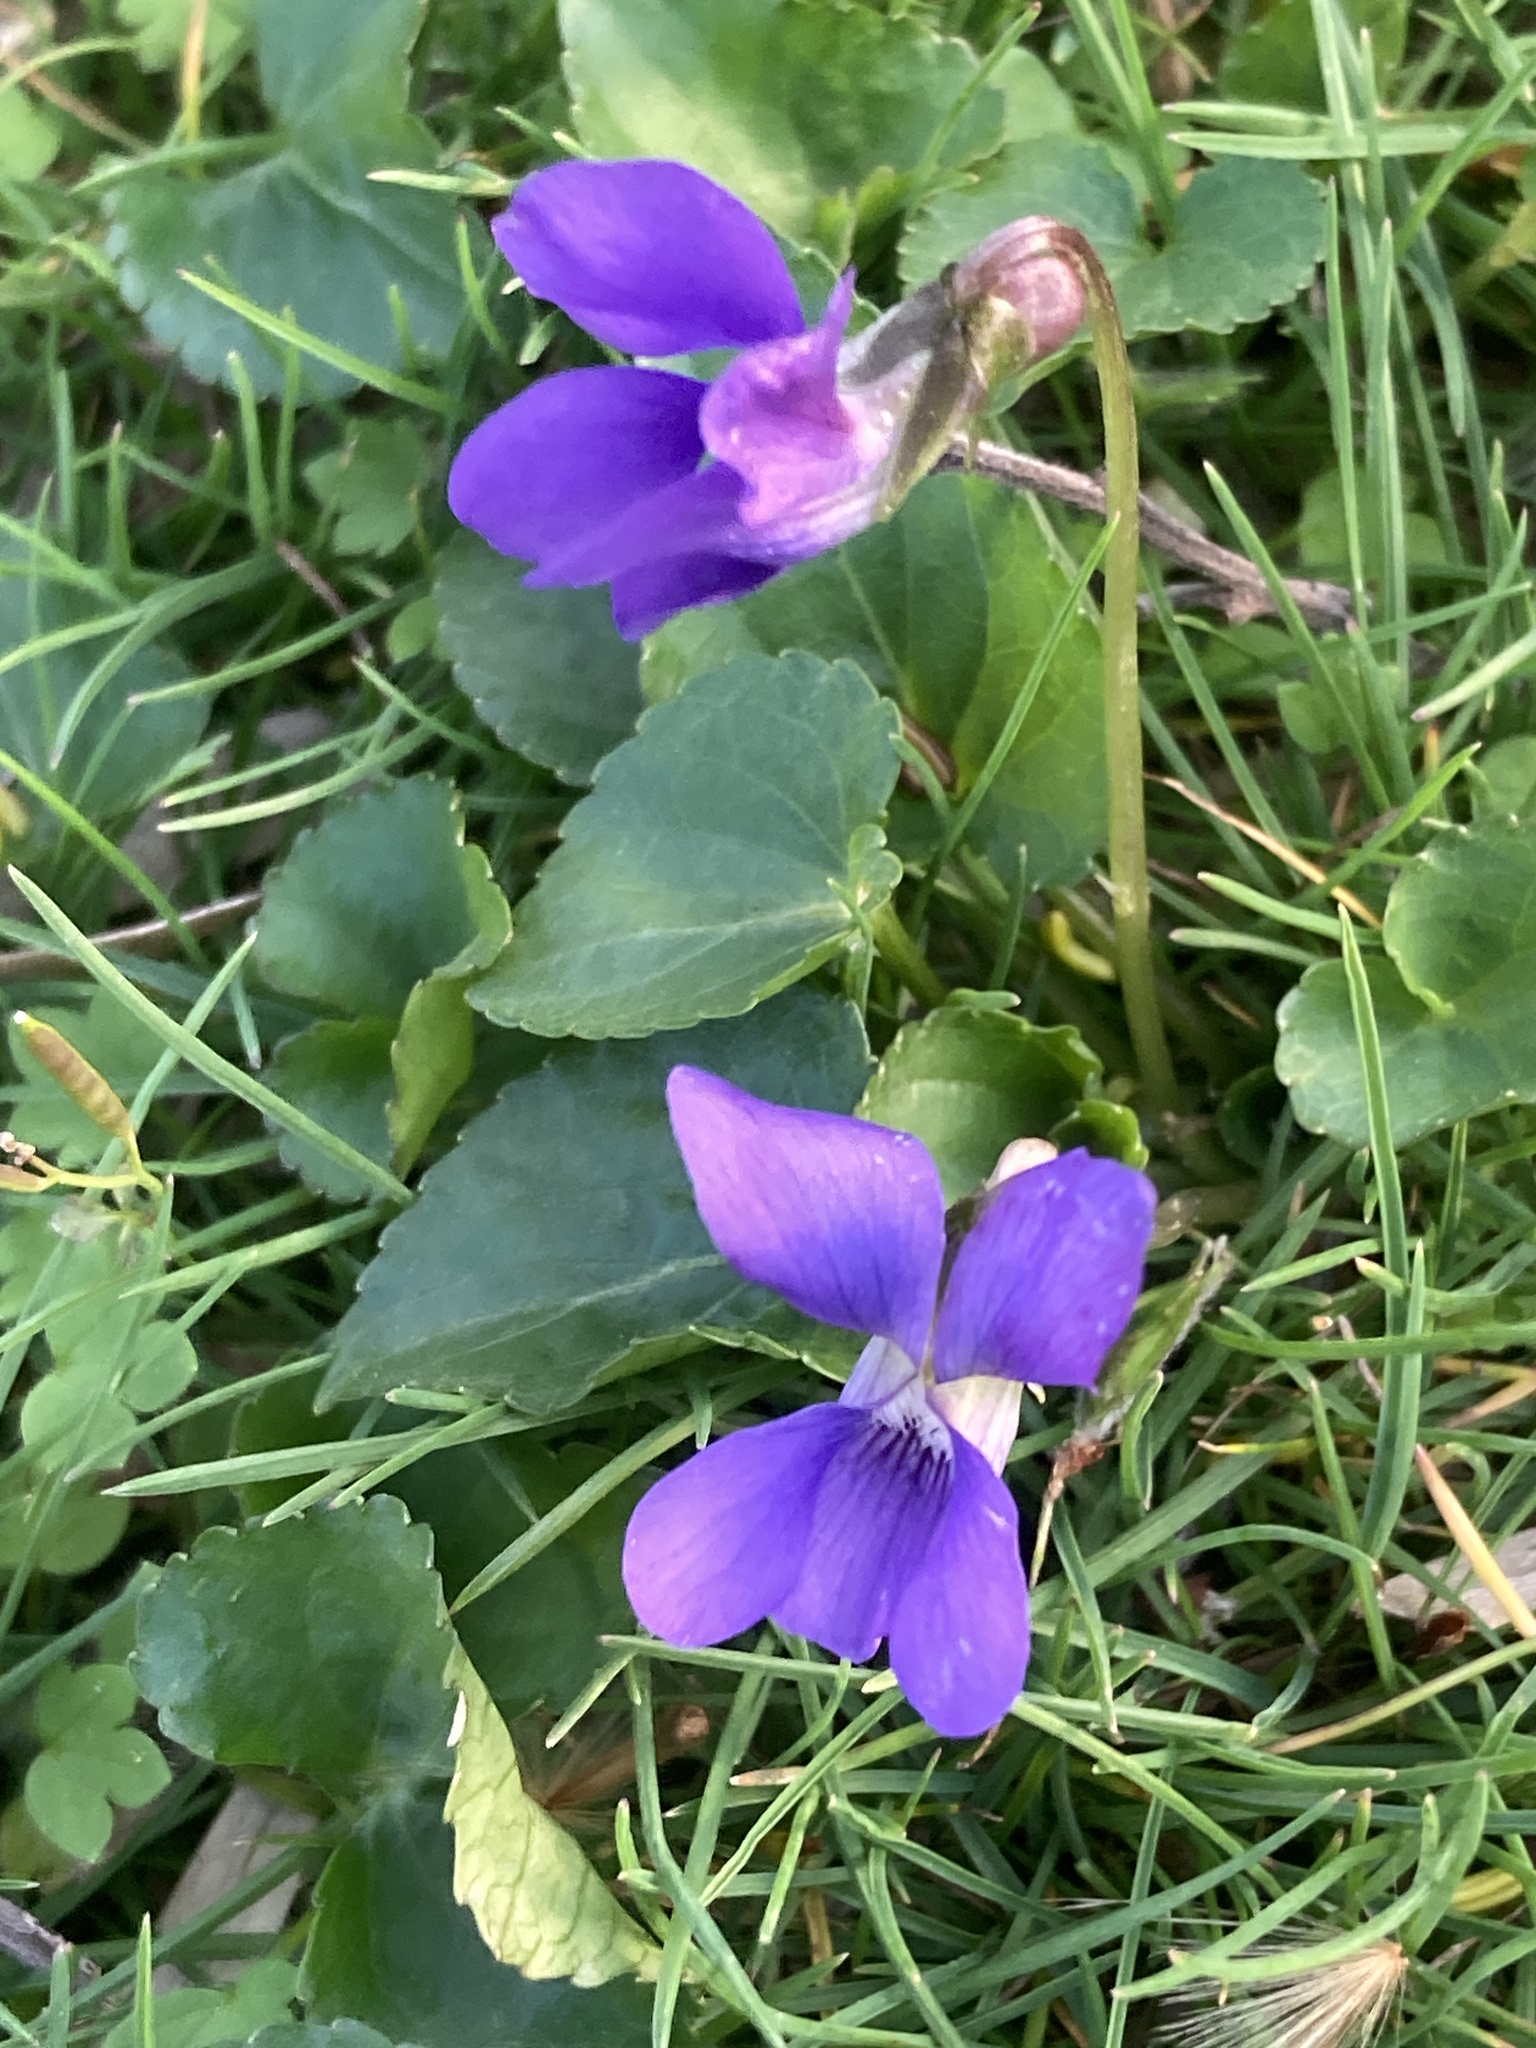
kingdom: Plantae
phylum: Tracheophyta
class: Magnoliopsida
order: Malpighiales
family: Violaceae
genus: Viola
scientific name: Viola sororia
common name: Dooryard violet
